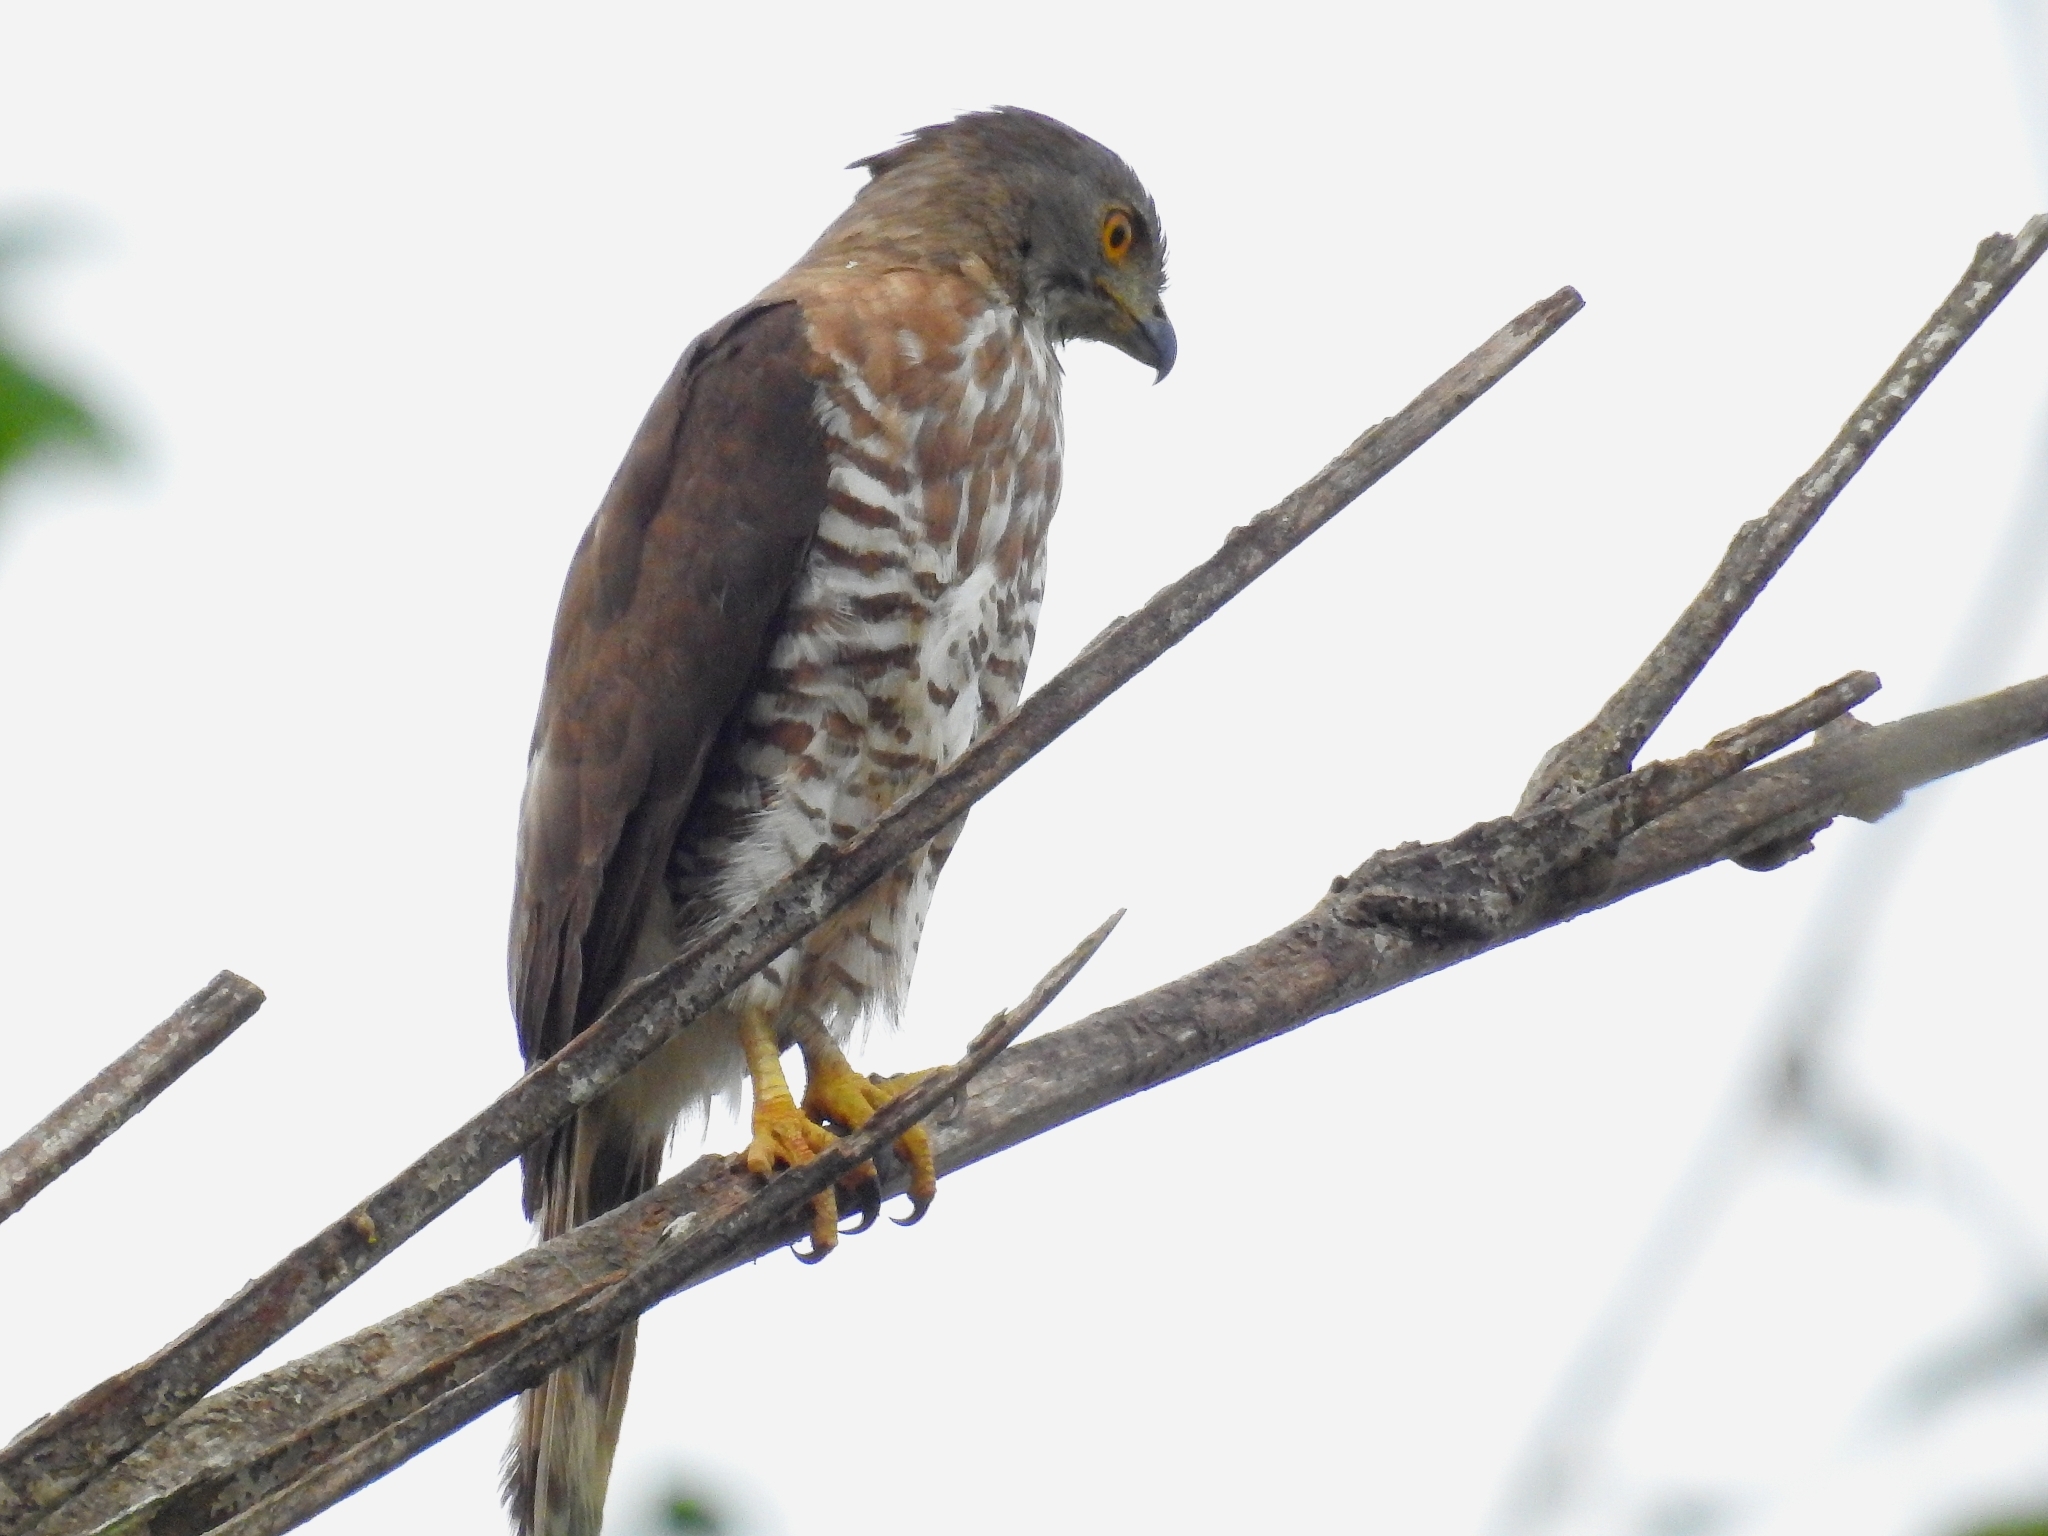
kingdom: Animalia
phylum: Chordata
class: Aves
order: Accipitriformes
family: Accipitridae
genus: Accipiter
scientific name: Accipiter trivirgatus
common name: Crested goshawk
